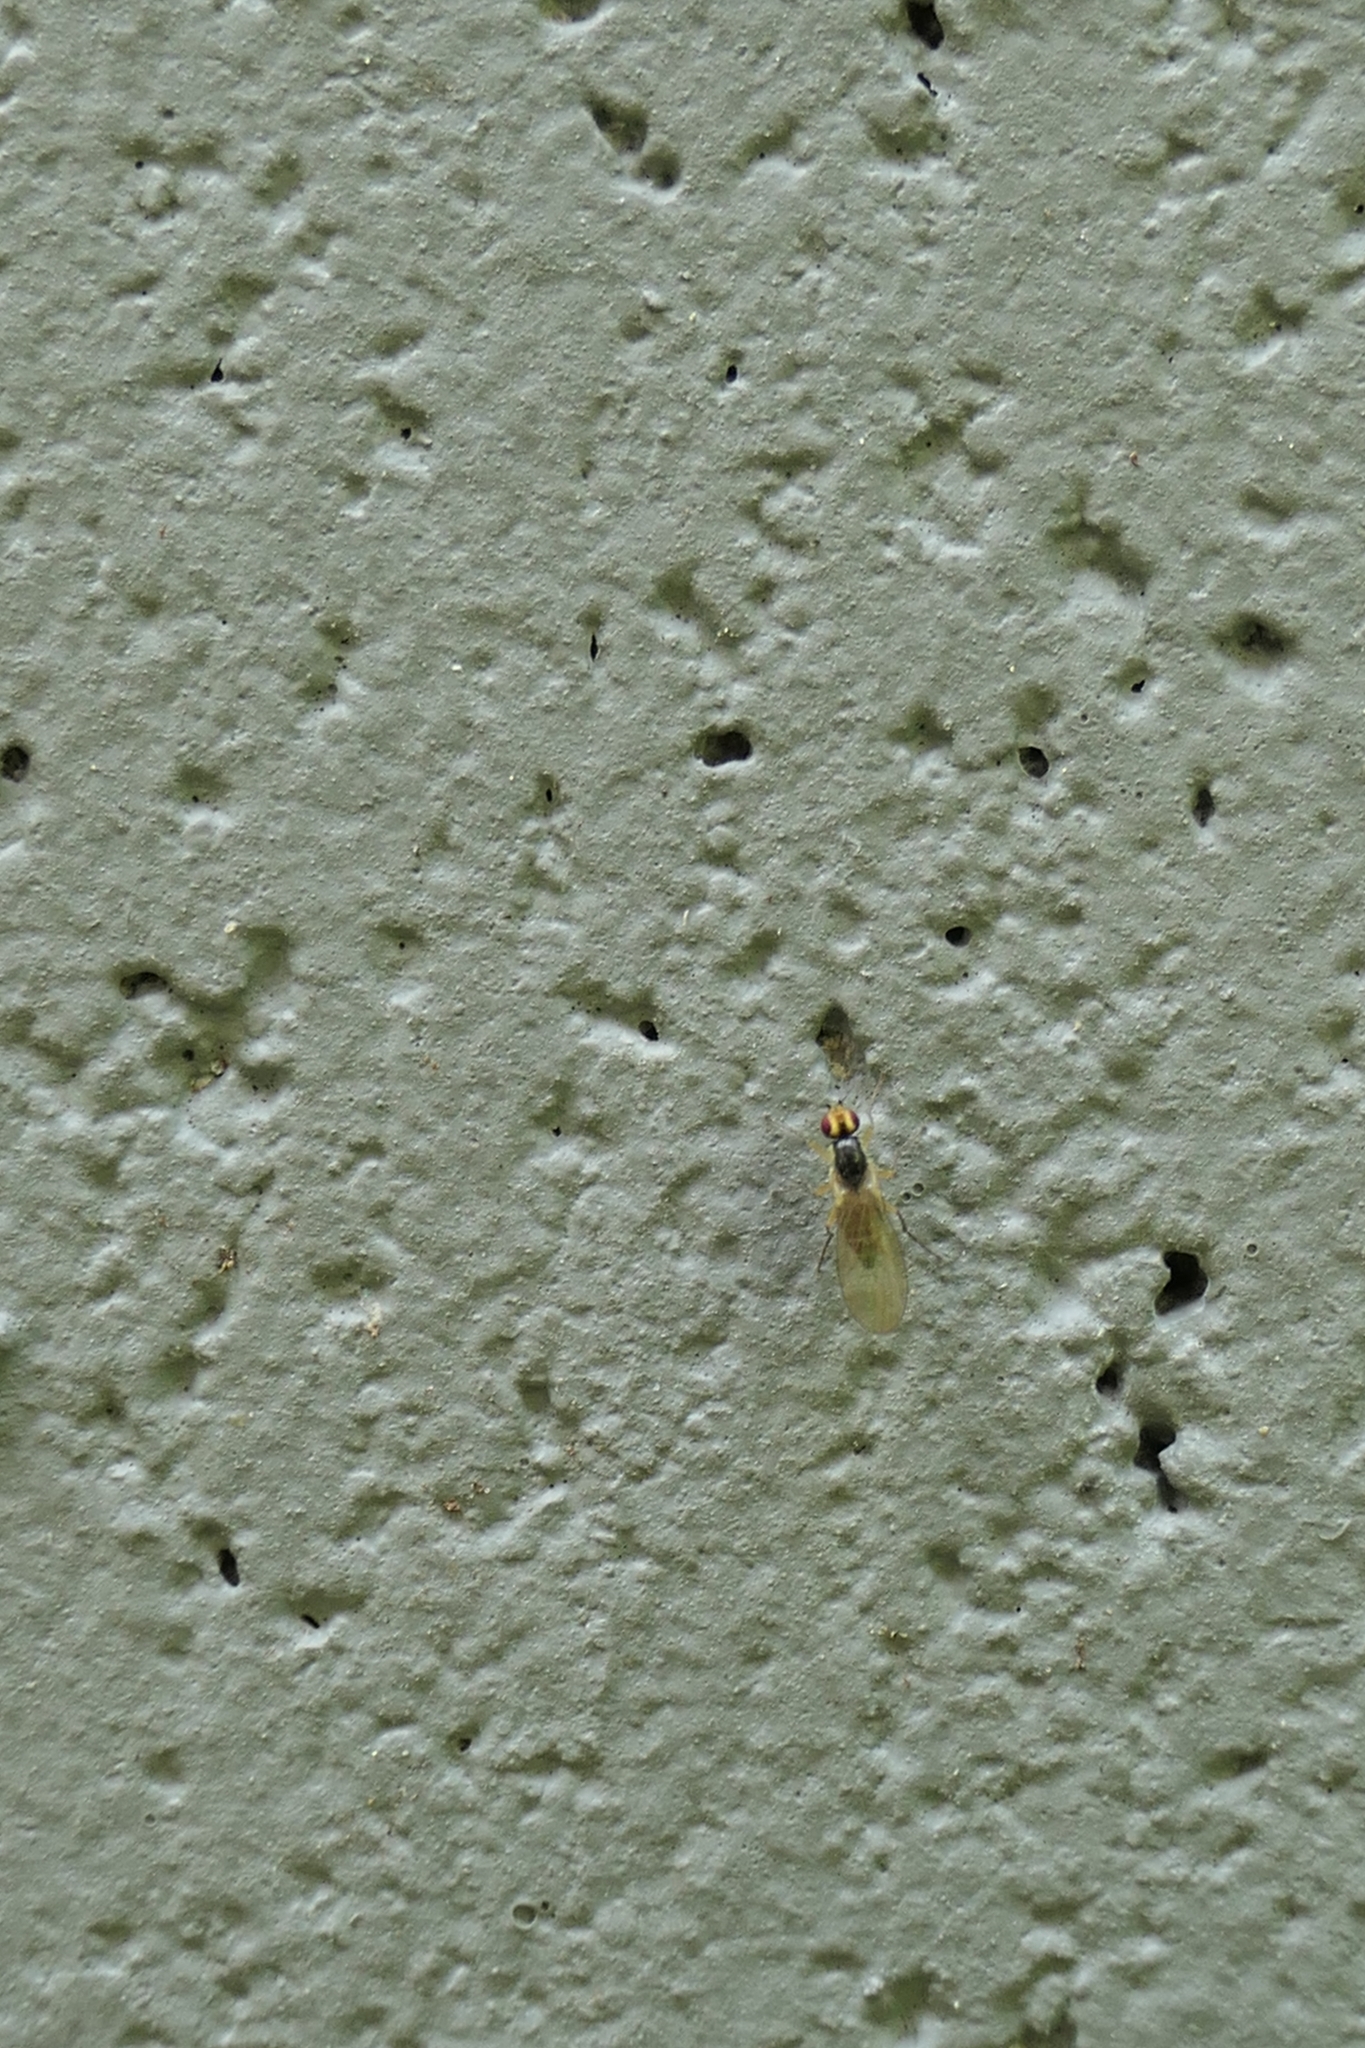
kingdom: Animalia
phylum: Arthropoda
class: Insecta
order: Diptera
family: Agromyzidae
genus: Cerodontha
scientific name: Cerodontha angustipennis
